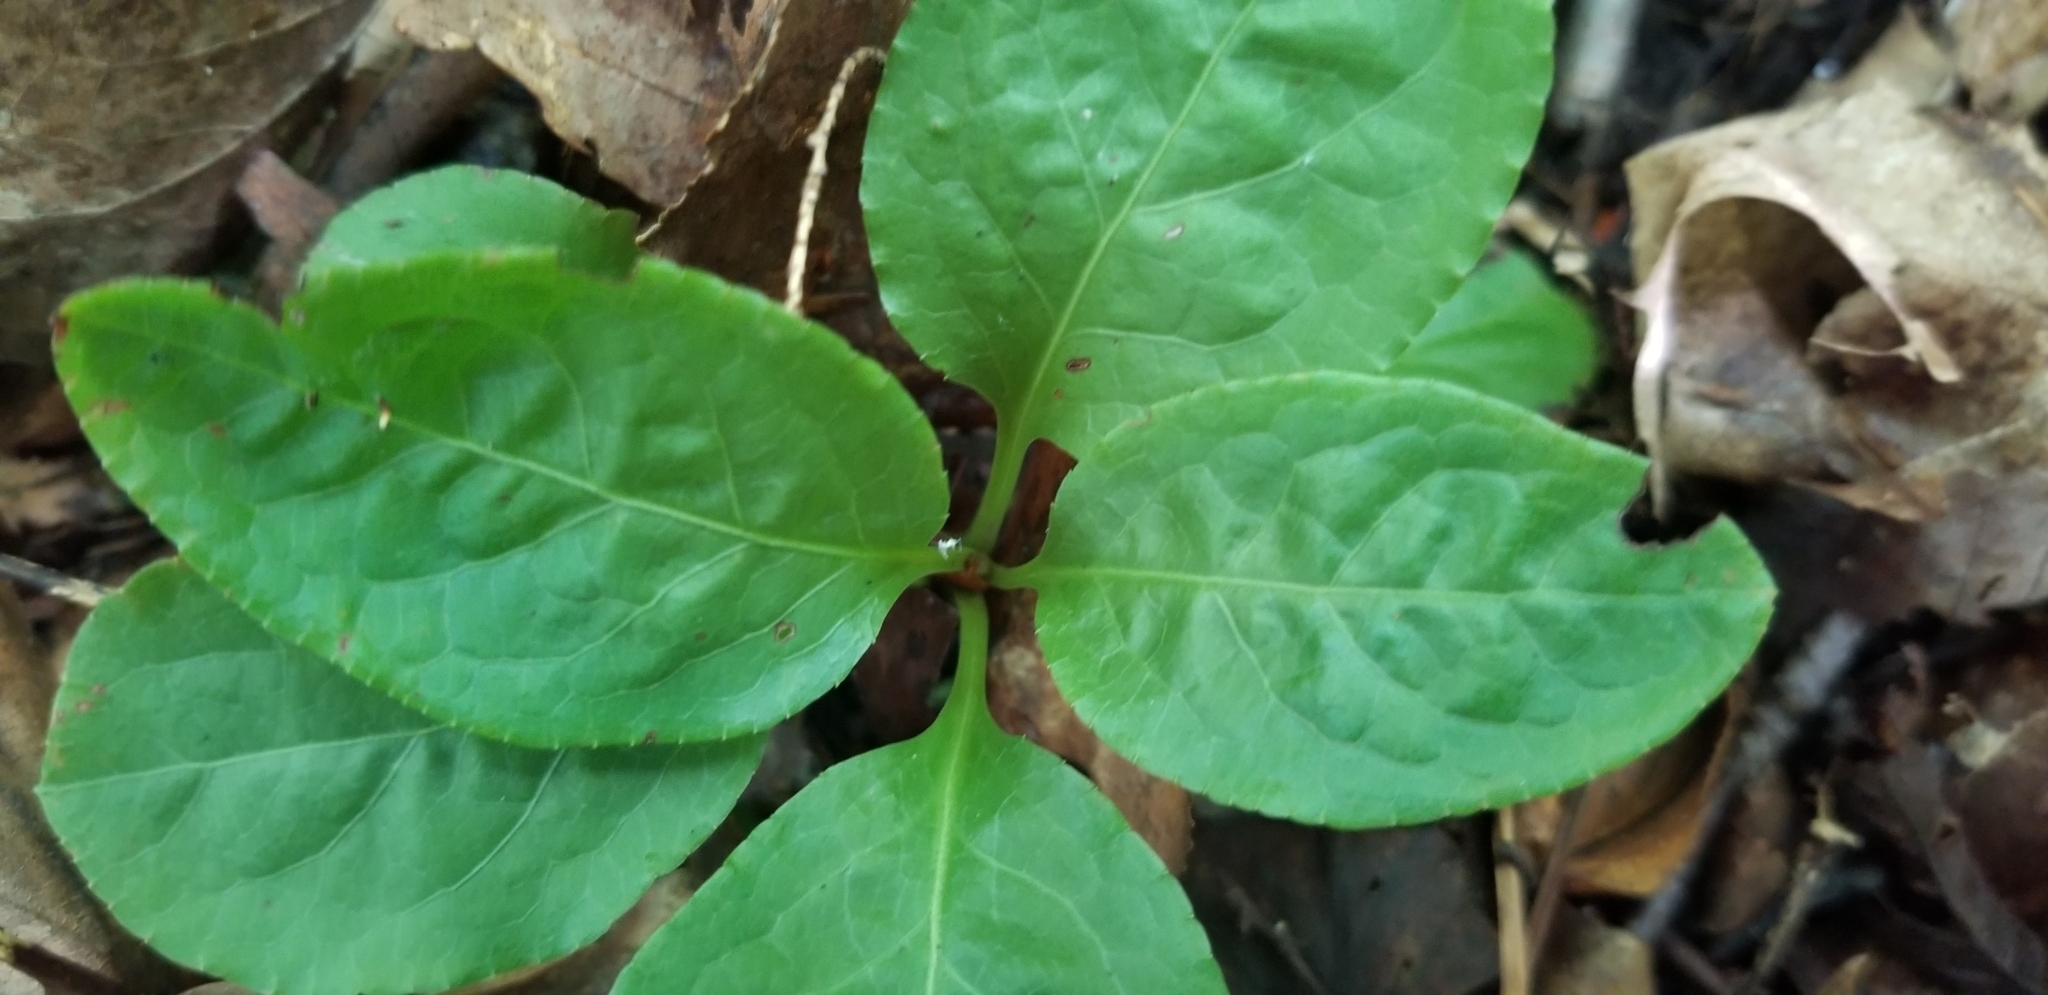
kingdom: Plantae
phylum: Tracheophyta
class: Magnoliopsida
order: Ericales
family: Ericaceae
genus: Pyrola
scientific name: Pyrola elliptica
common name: Shinleaf
